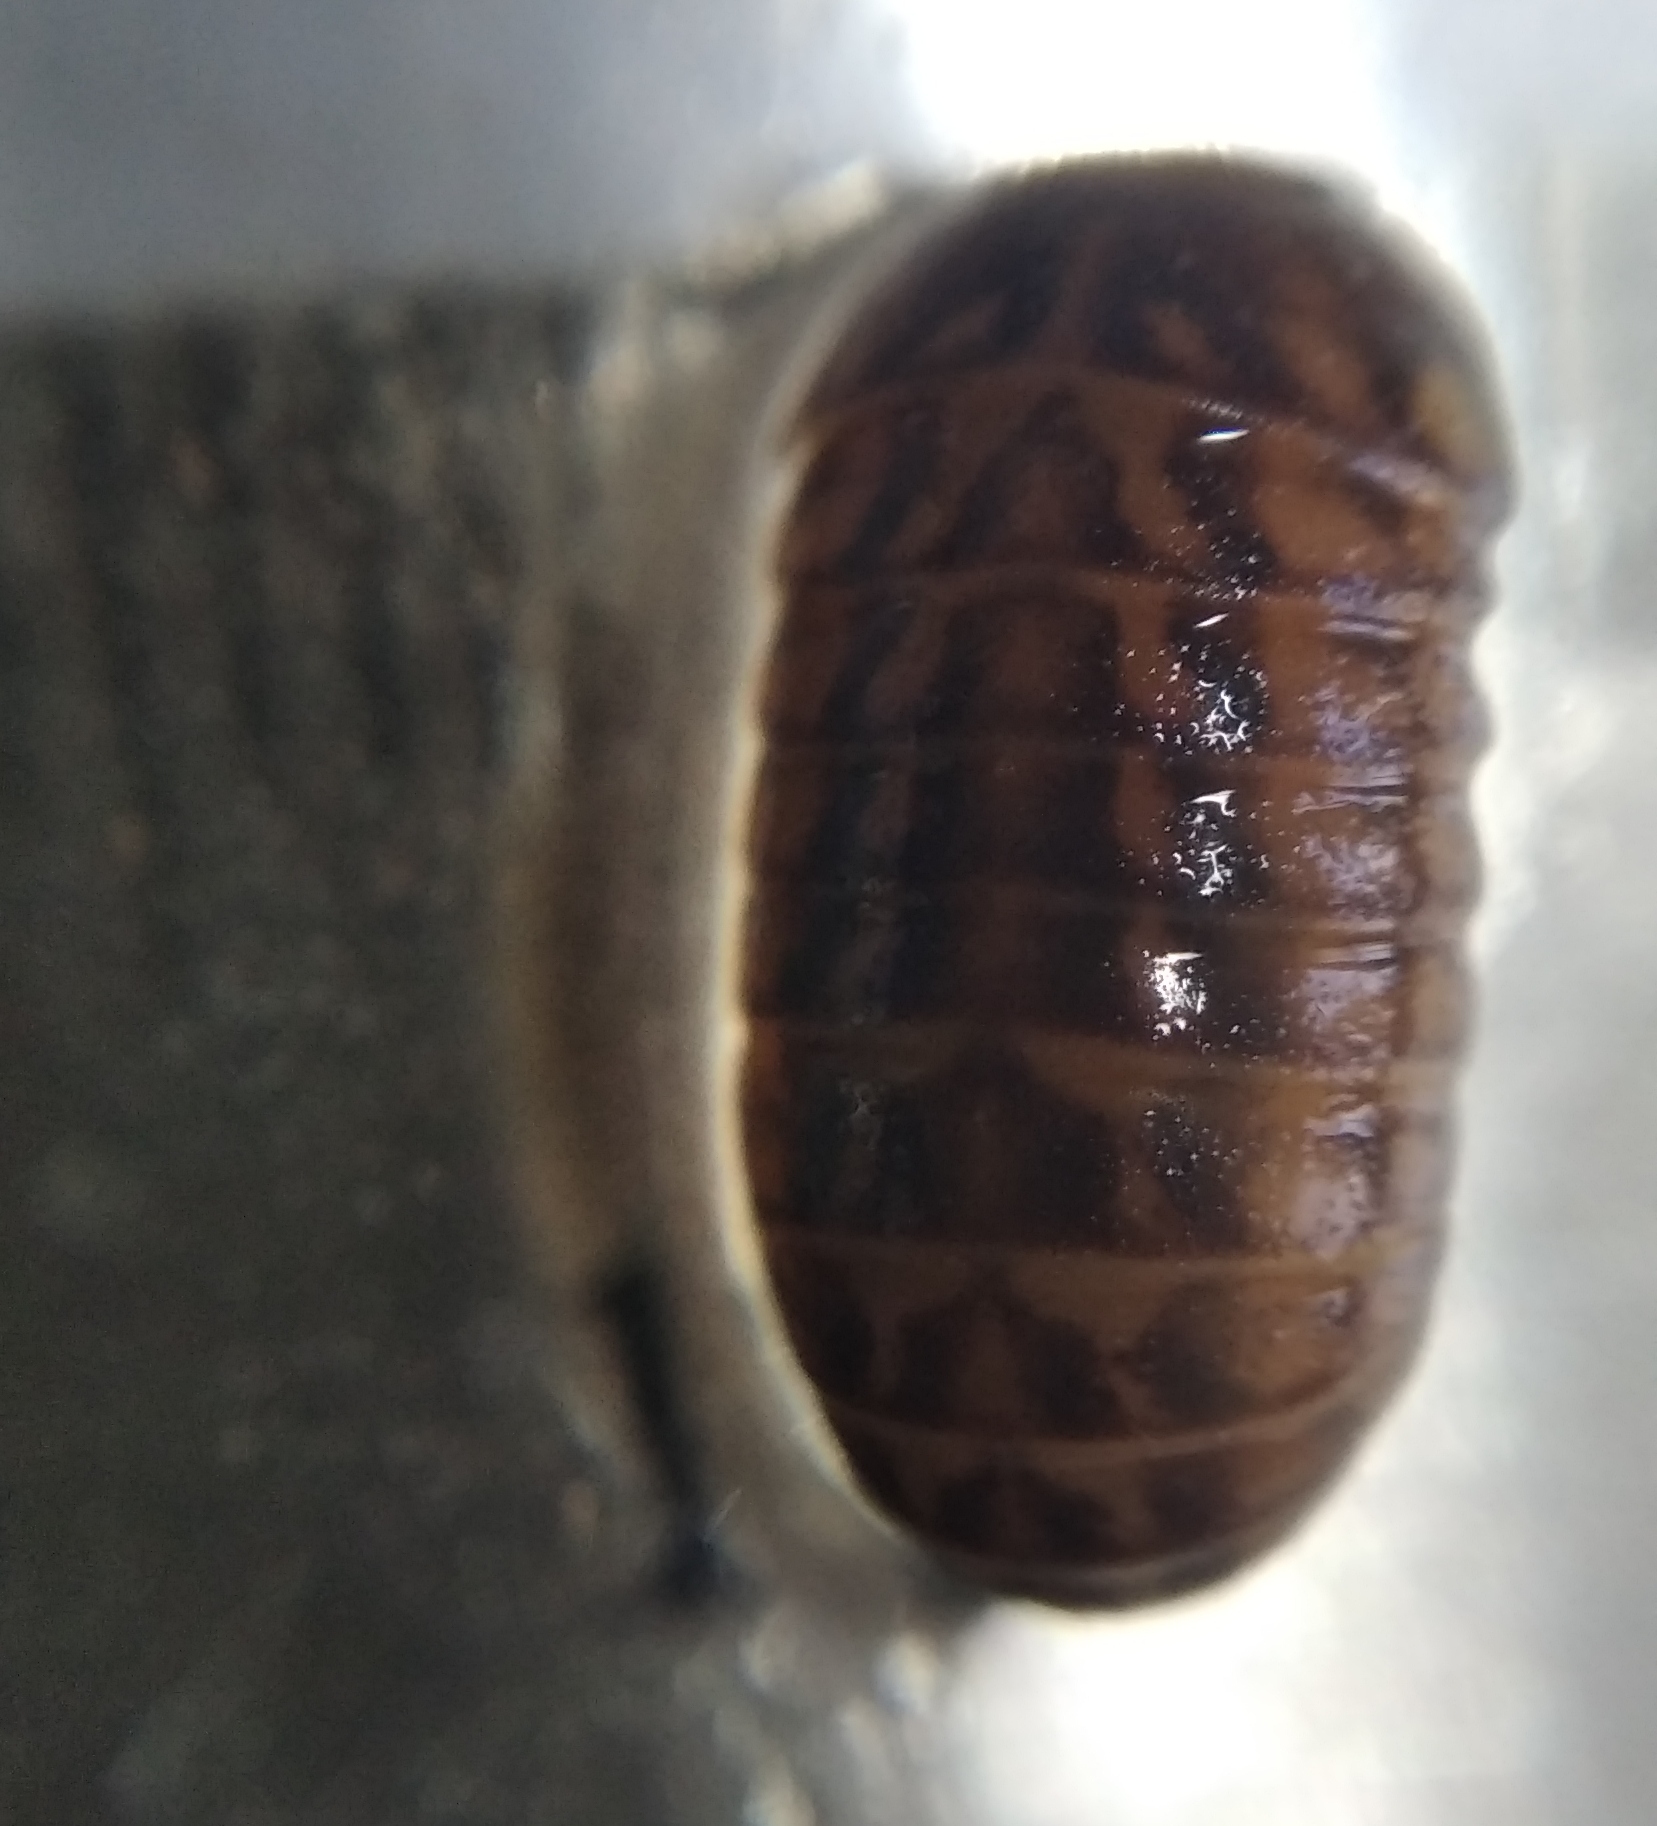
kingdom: Animalia
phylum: Arthropoda
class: Diplopoda
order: Glomerida
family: Glomeridae
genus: Glomeris
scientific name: Glomeris hexasticha
